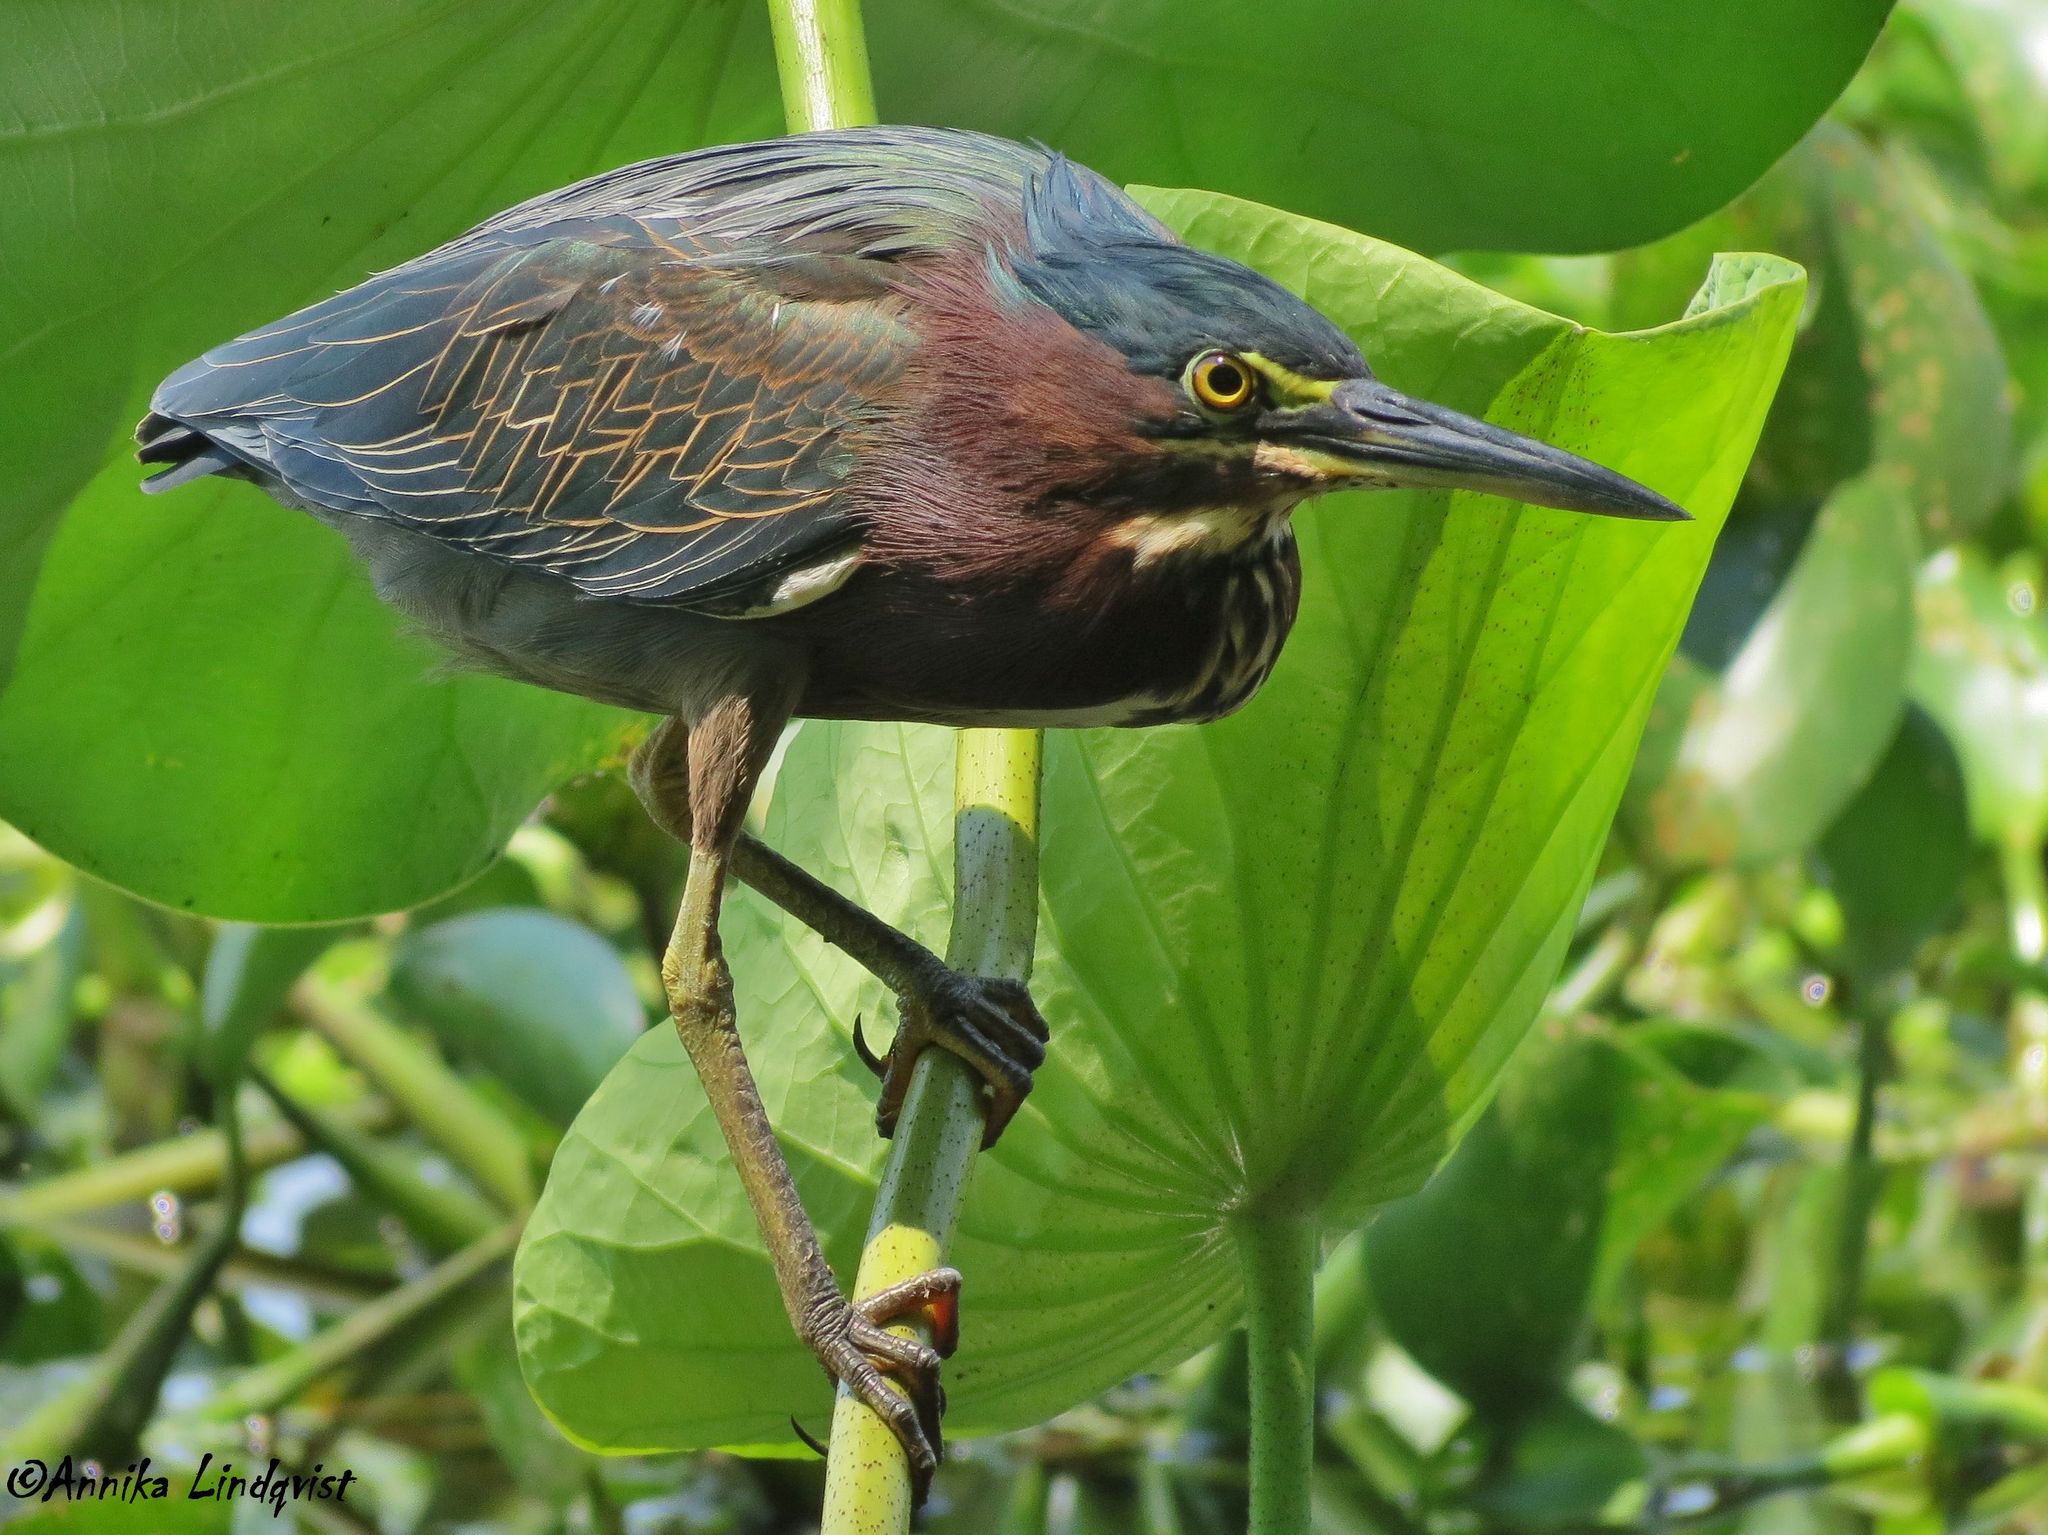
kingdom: Animalia
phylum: Chordata
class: Aves
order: Pelecaniformes
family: Ardeidae
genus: Butorides
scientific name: Butorides virescens
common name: Green heron
